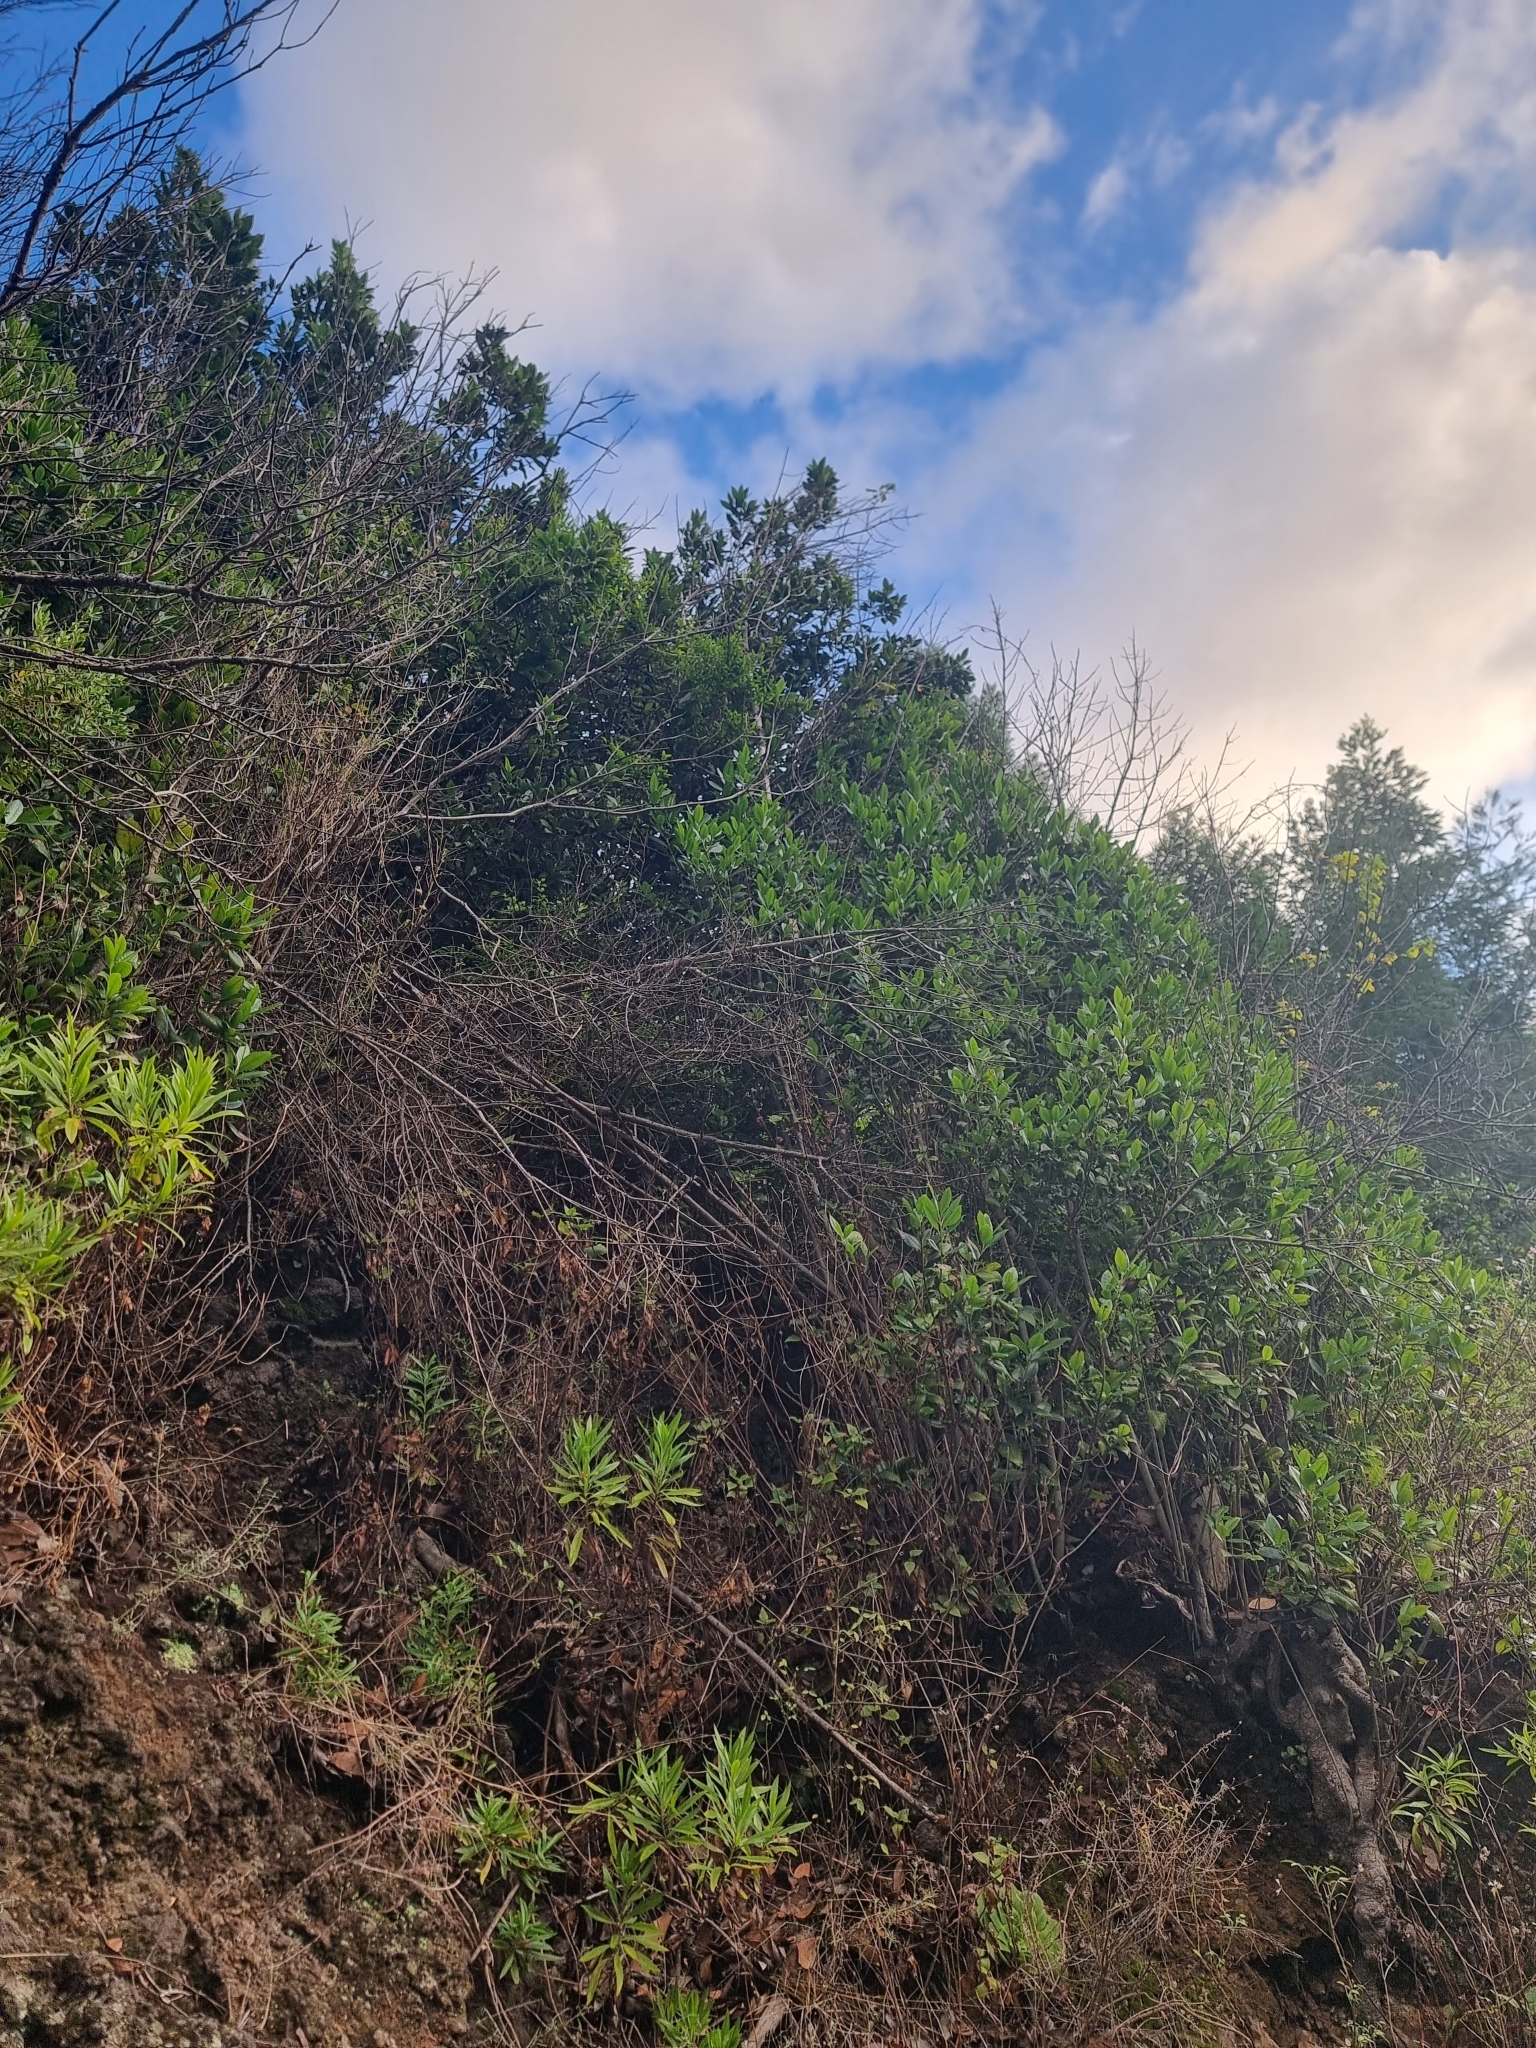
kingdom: Plantae
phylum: Tracheophyta
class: Magnoliopsida
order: Aquifoliales
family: Aquifoliaceae
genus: Ilex
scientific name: Ilex canariensis
